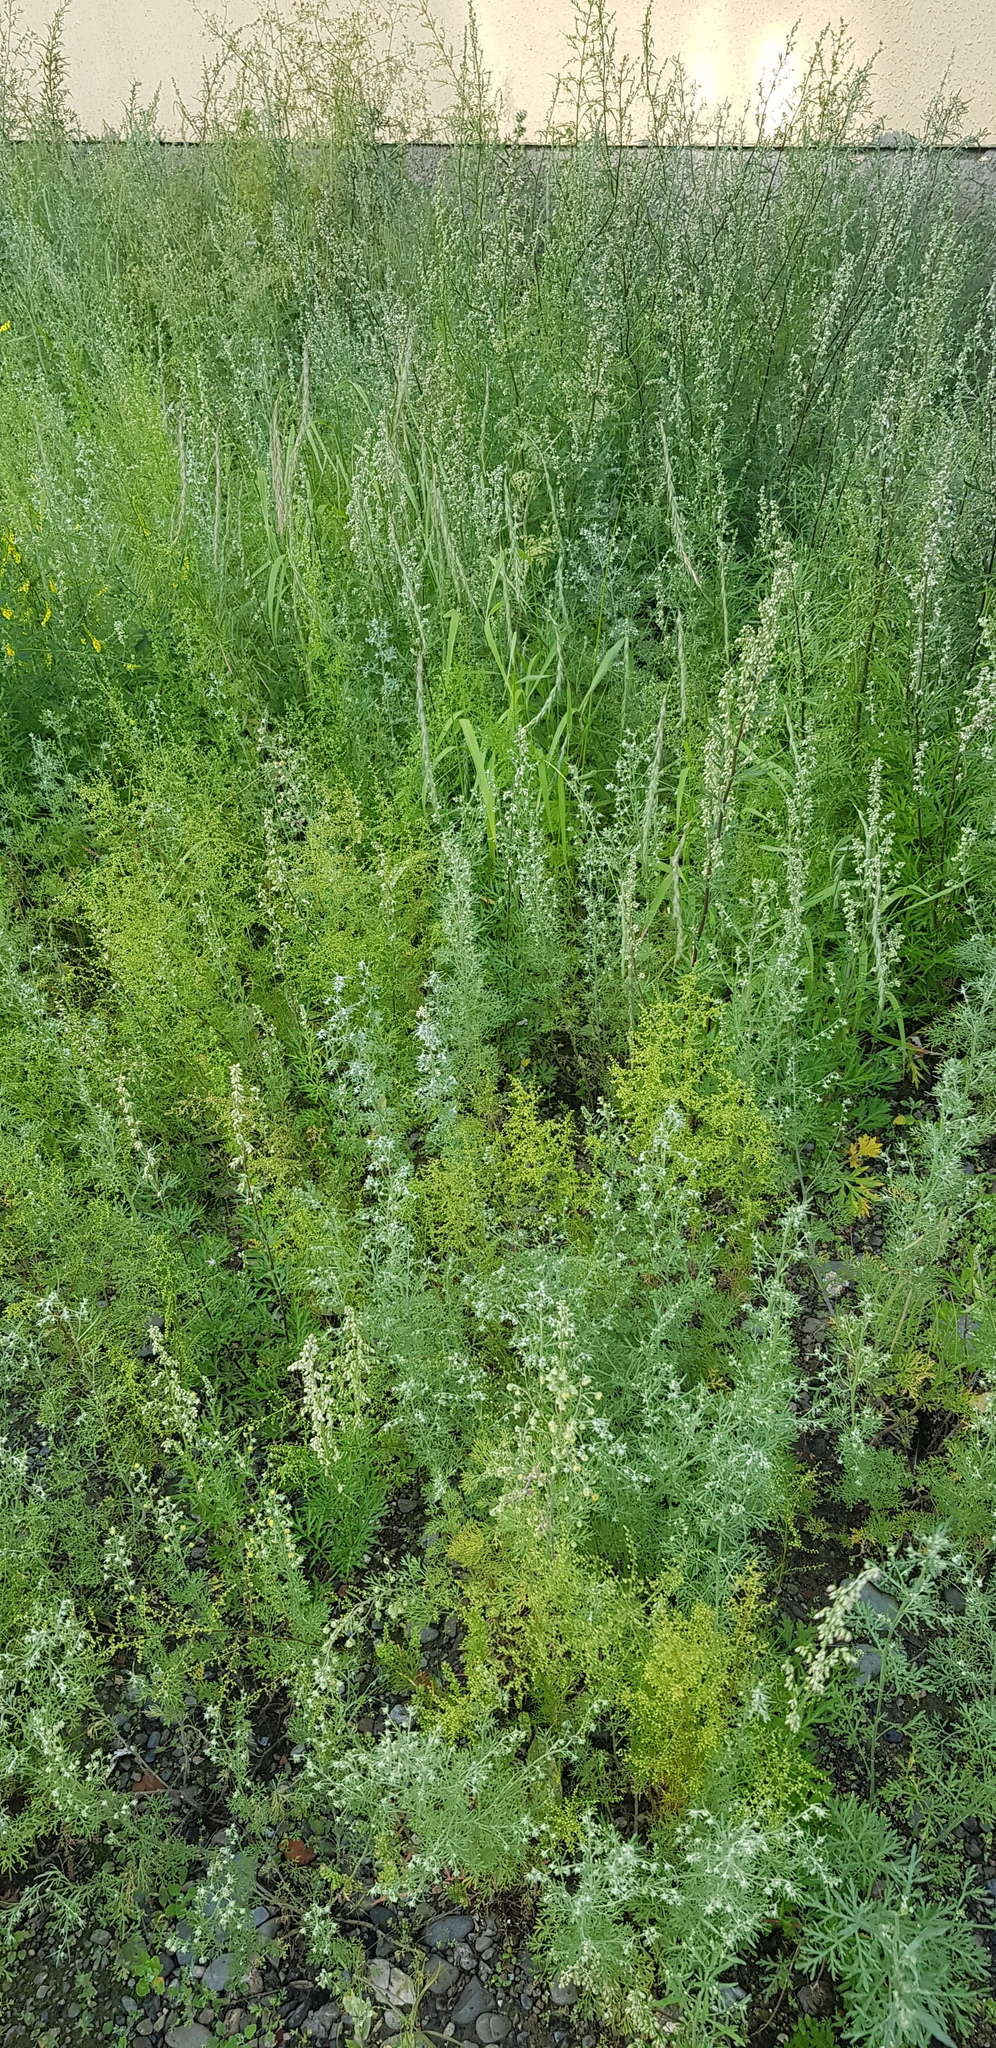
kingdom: Plantae
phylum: Tracheophyta
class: Magnoliopsida
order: Asterales
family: Asteraceae
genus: Artemisia
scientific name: Artemisia sieversiana
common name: Sieversian wormwood
